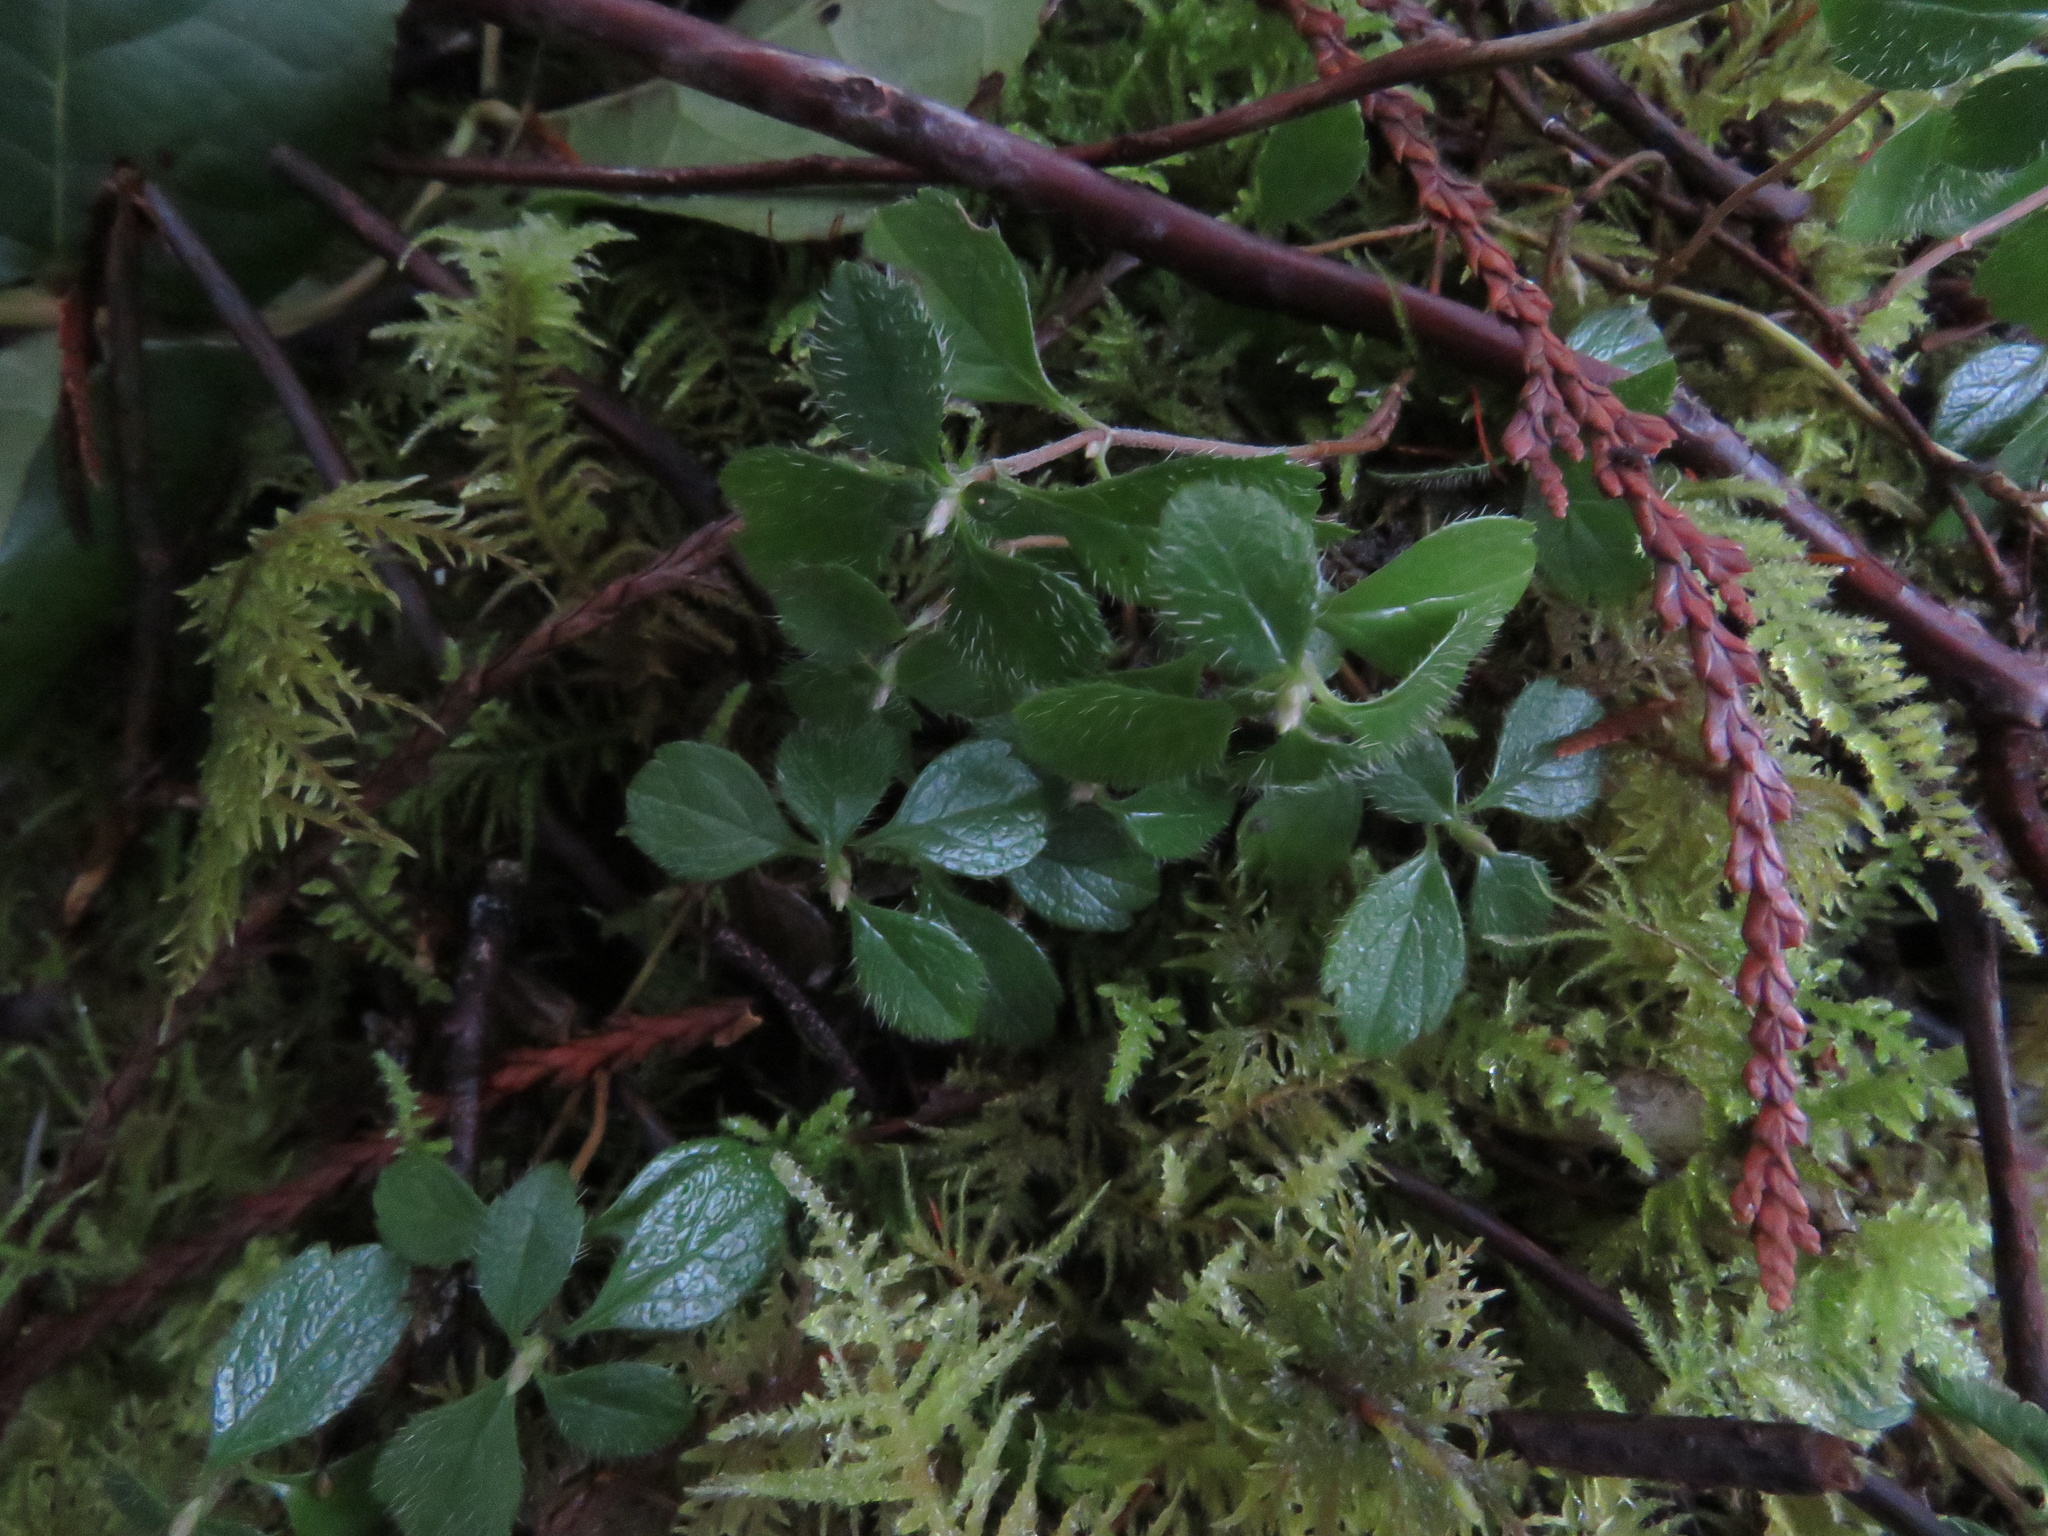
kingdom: Plantae
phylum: Tracheophyta
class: Magnoliopsida
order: Dipsacales
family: Caprifoliaceae
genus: Linnaea
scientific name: Linnaea borealis
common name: Twinflower
